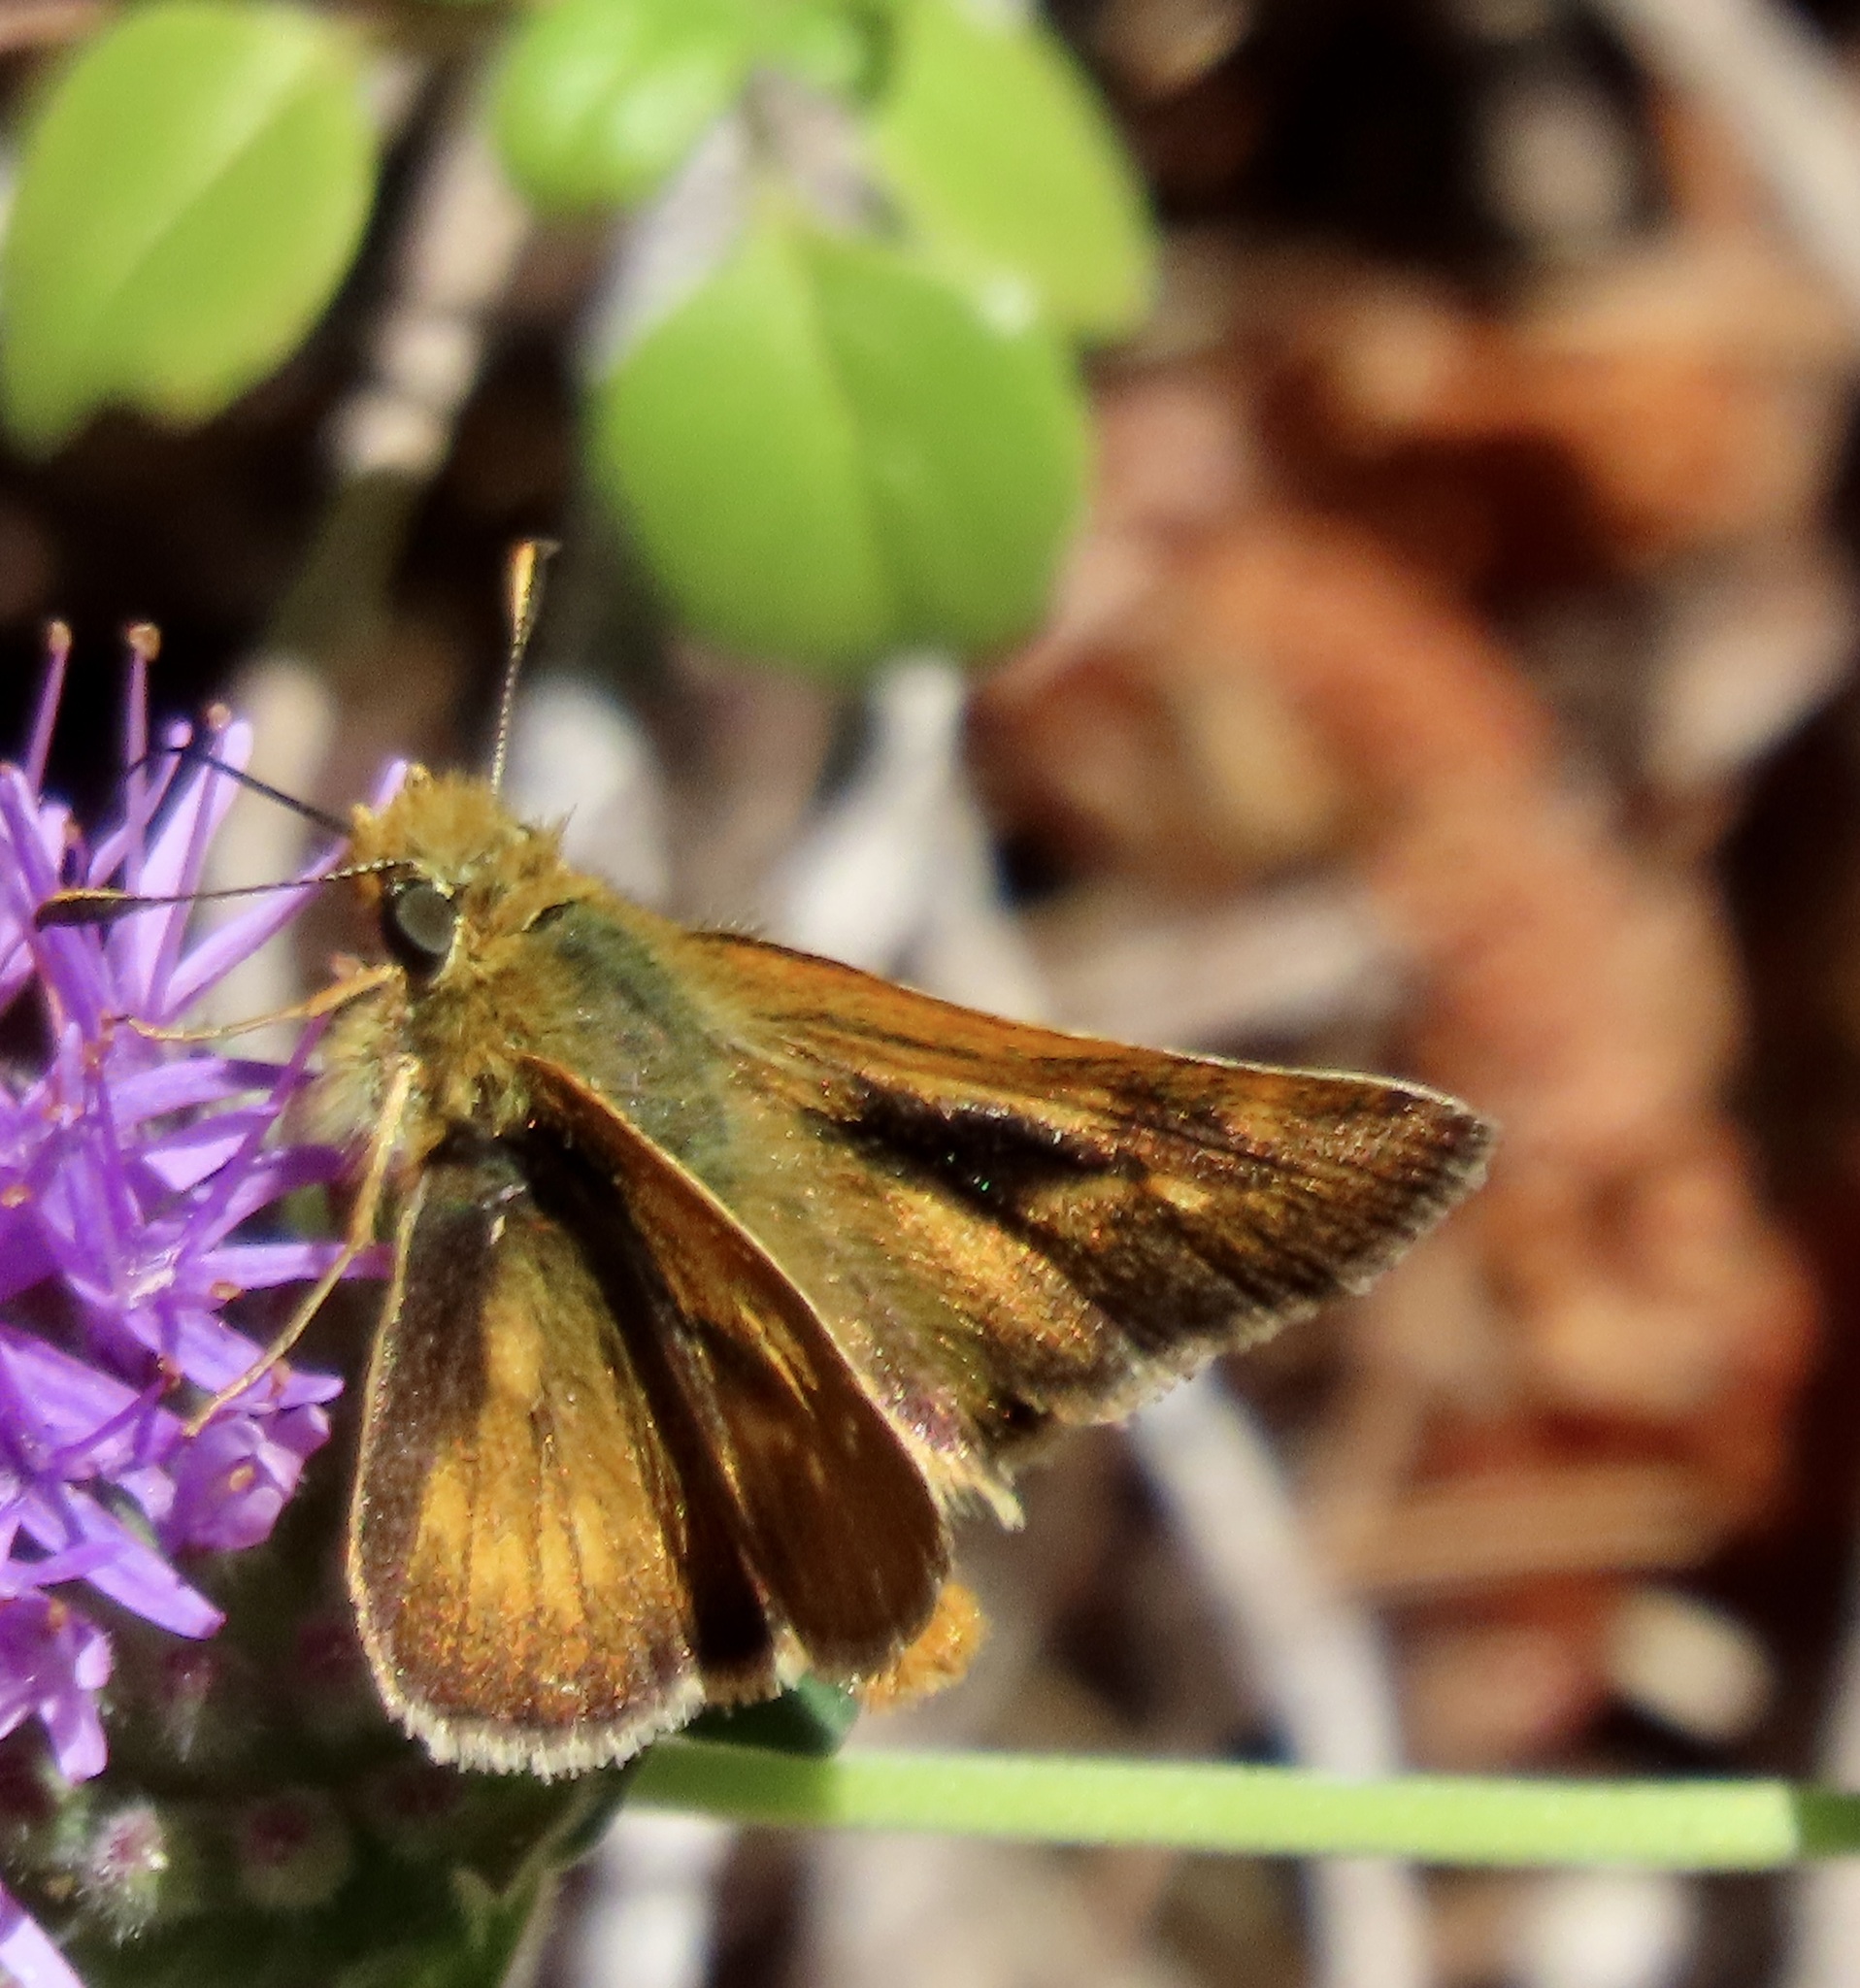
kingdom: Animalia
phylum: Arthropoda
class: Insecta
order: Lepidoptera
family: Hesperiidae
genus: Ochlodes
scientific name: Ochlodes agricola
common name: Rural skipper
